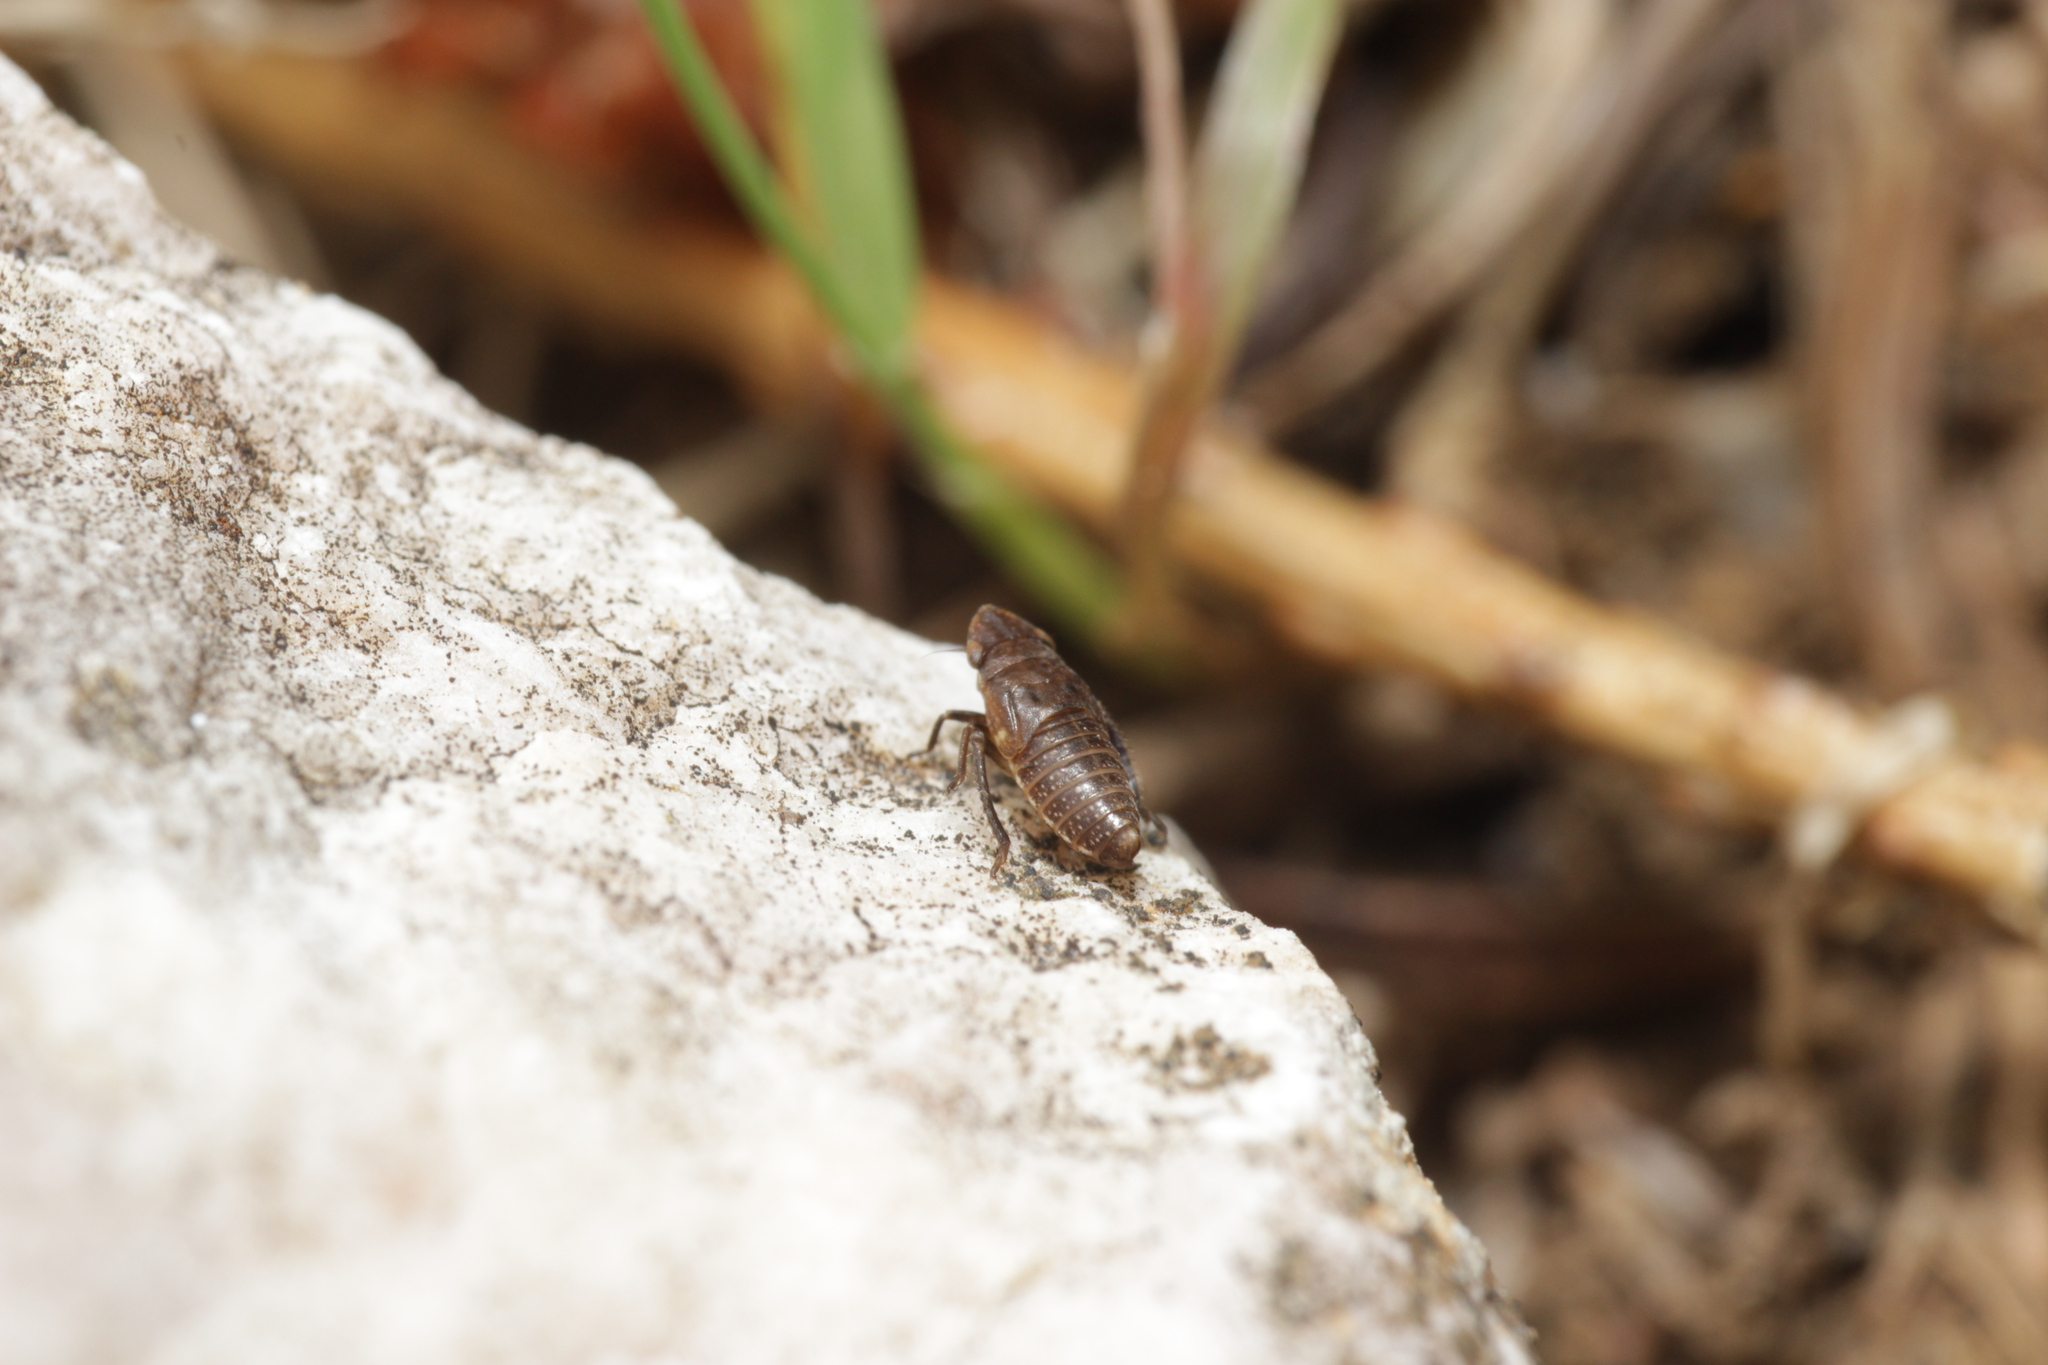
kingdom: Animalia
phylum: Arthropoda
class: Insecta
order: Hemiptera
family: Cicadellidae
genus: Errhomenus
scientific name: Errhomenus brachypterus
